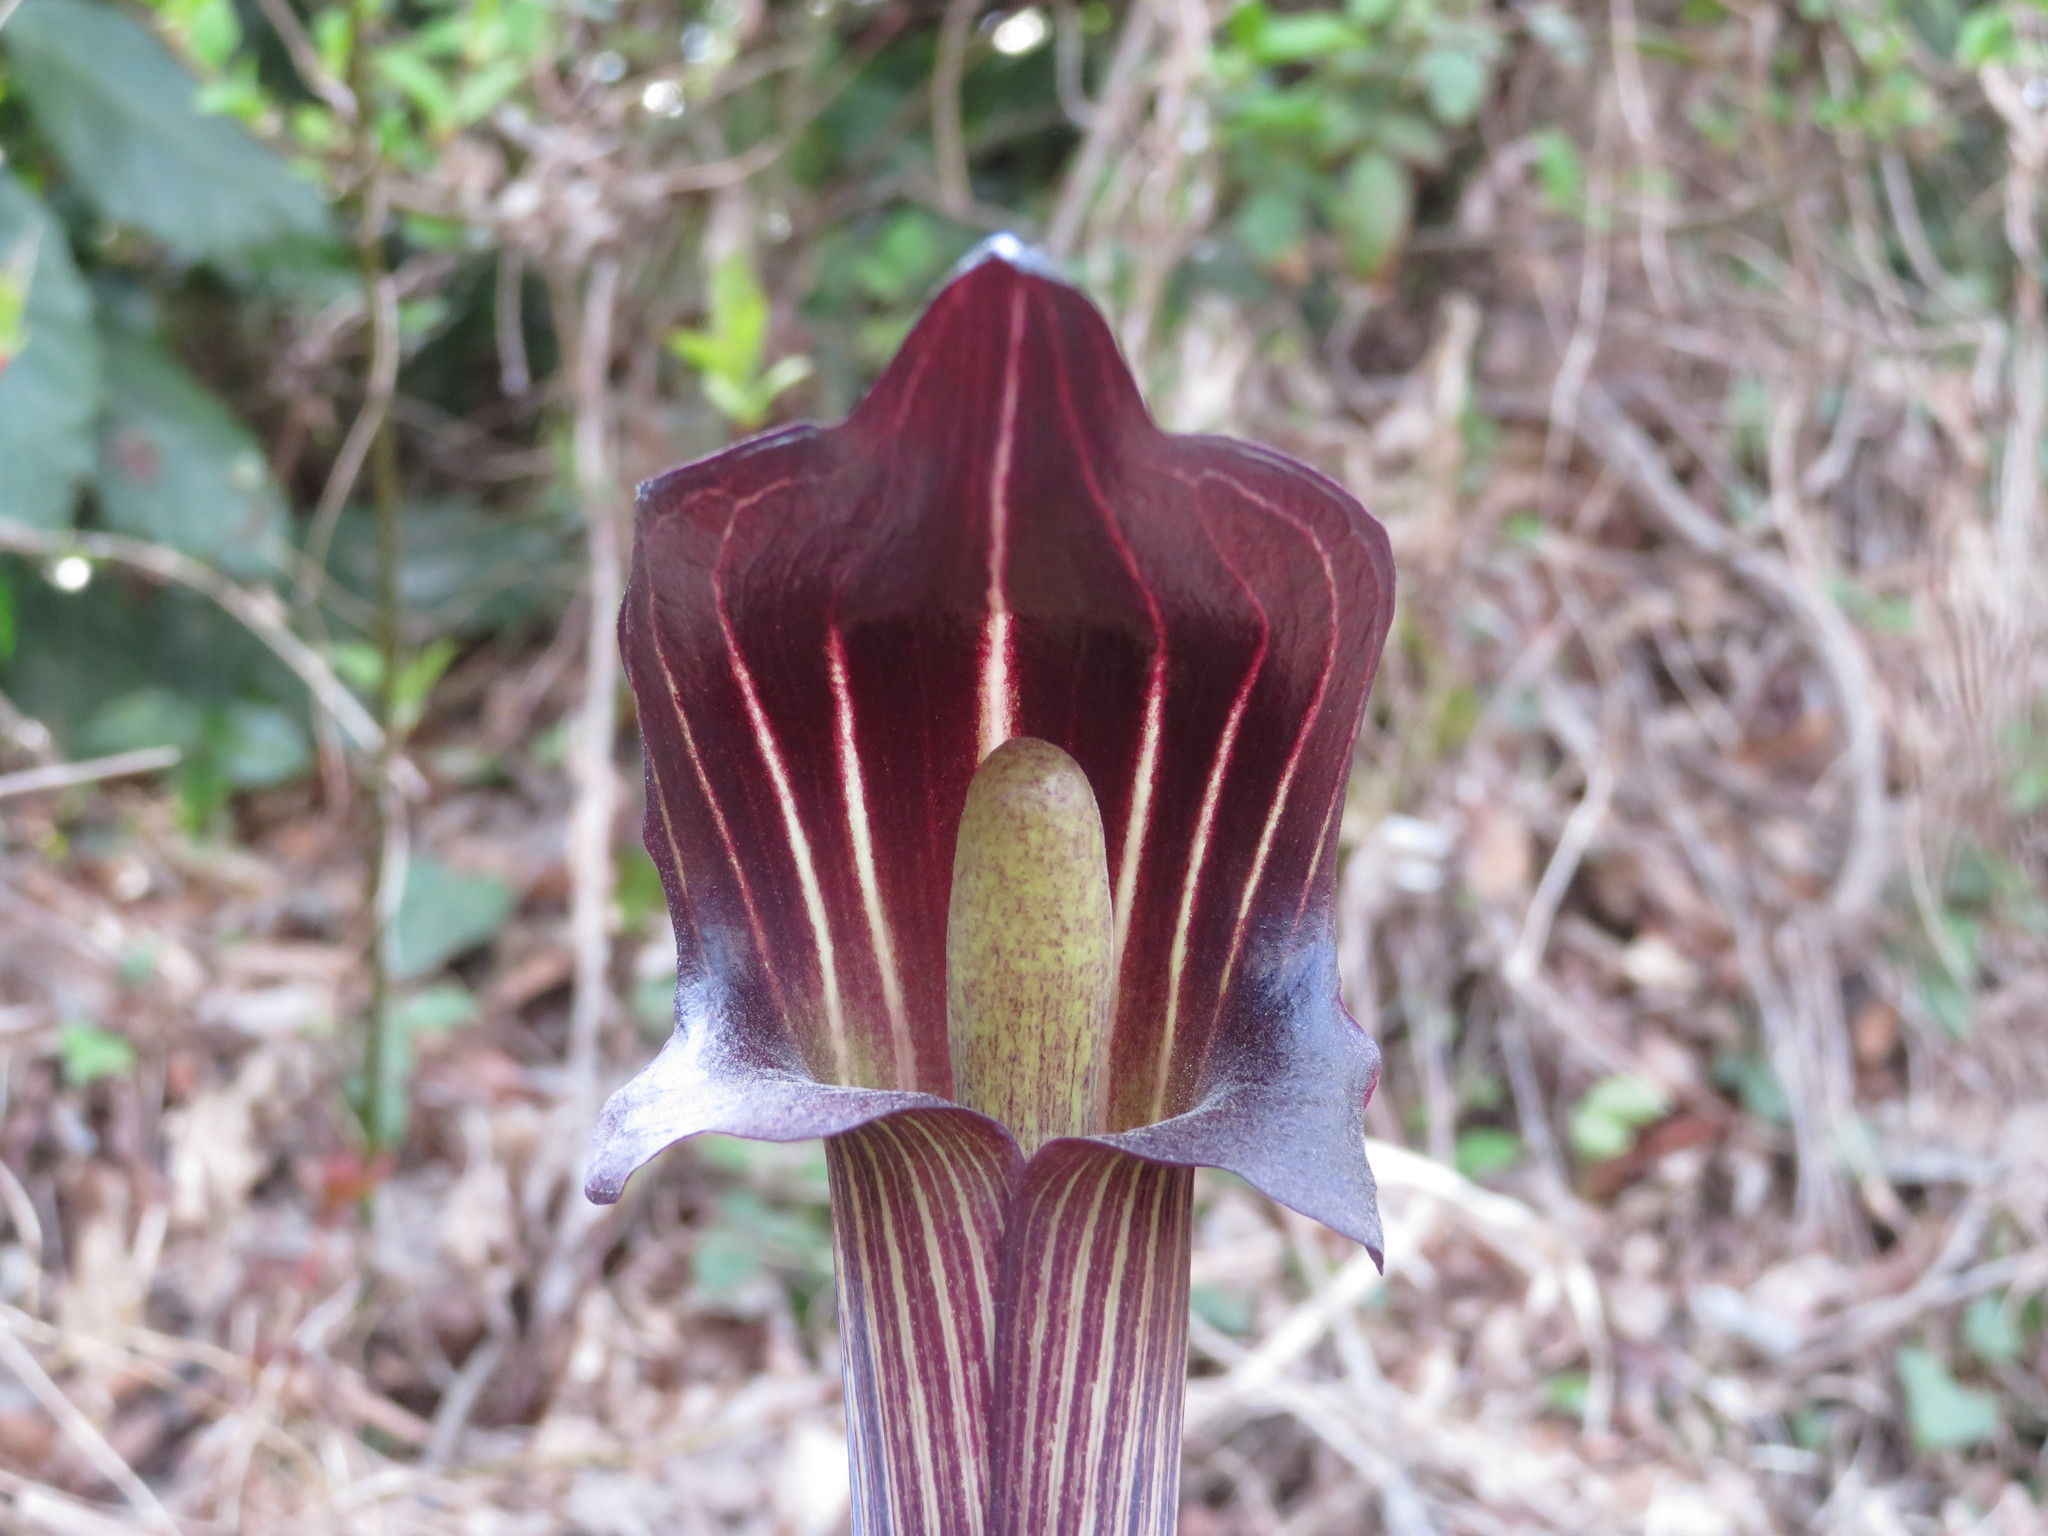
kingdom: Plantae
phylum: Tracheophyta
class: Liliopsida
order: Alismatales
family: Araceae
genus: Arisaema
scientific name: Arisaema limbatum
